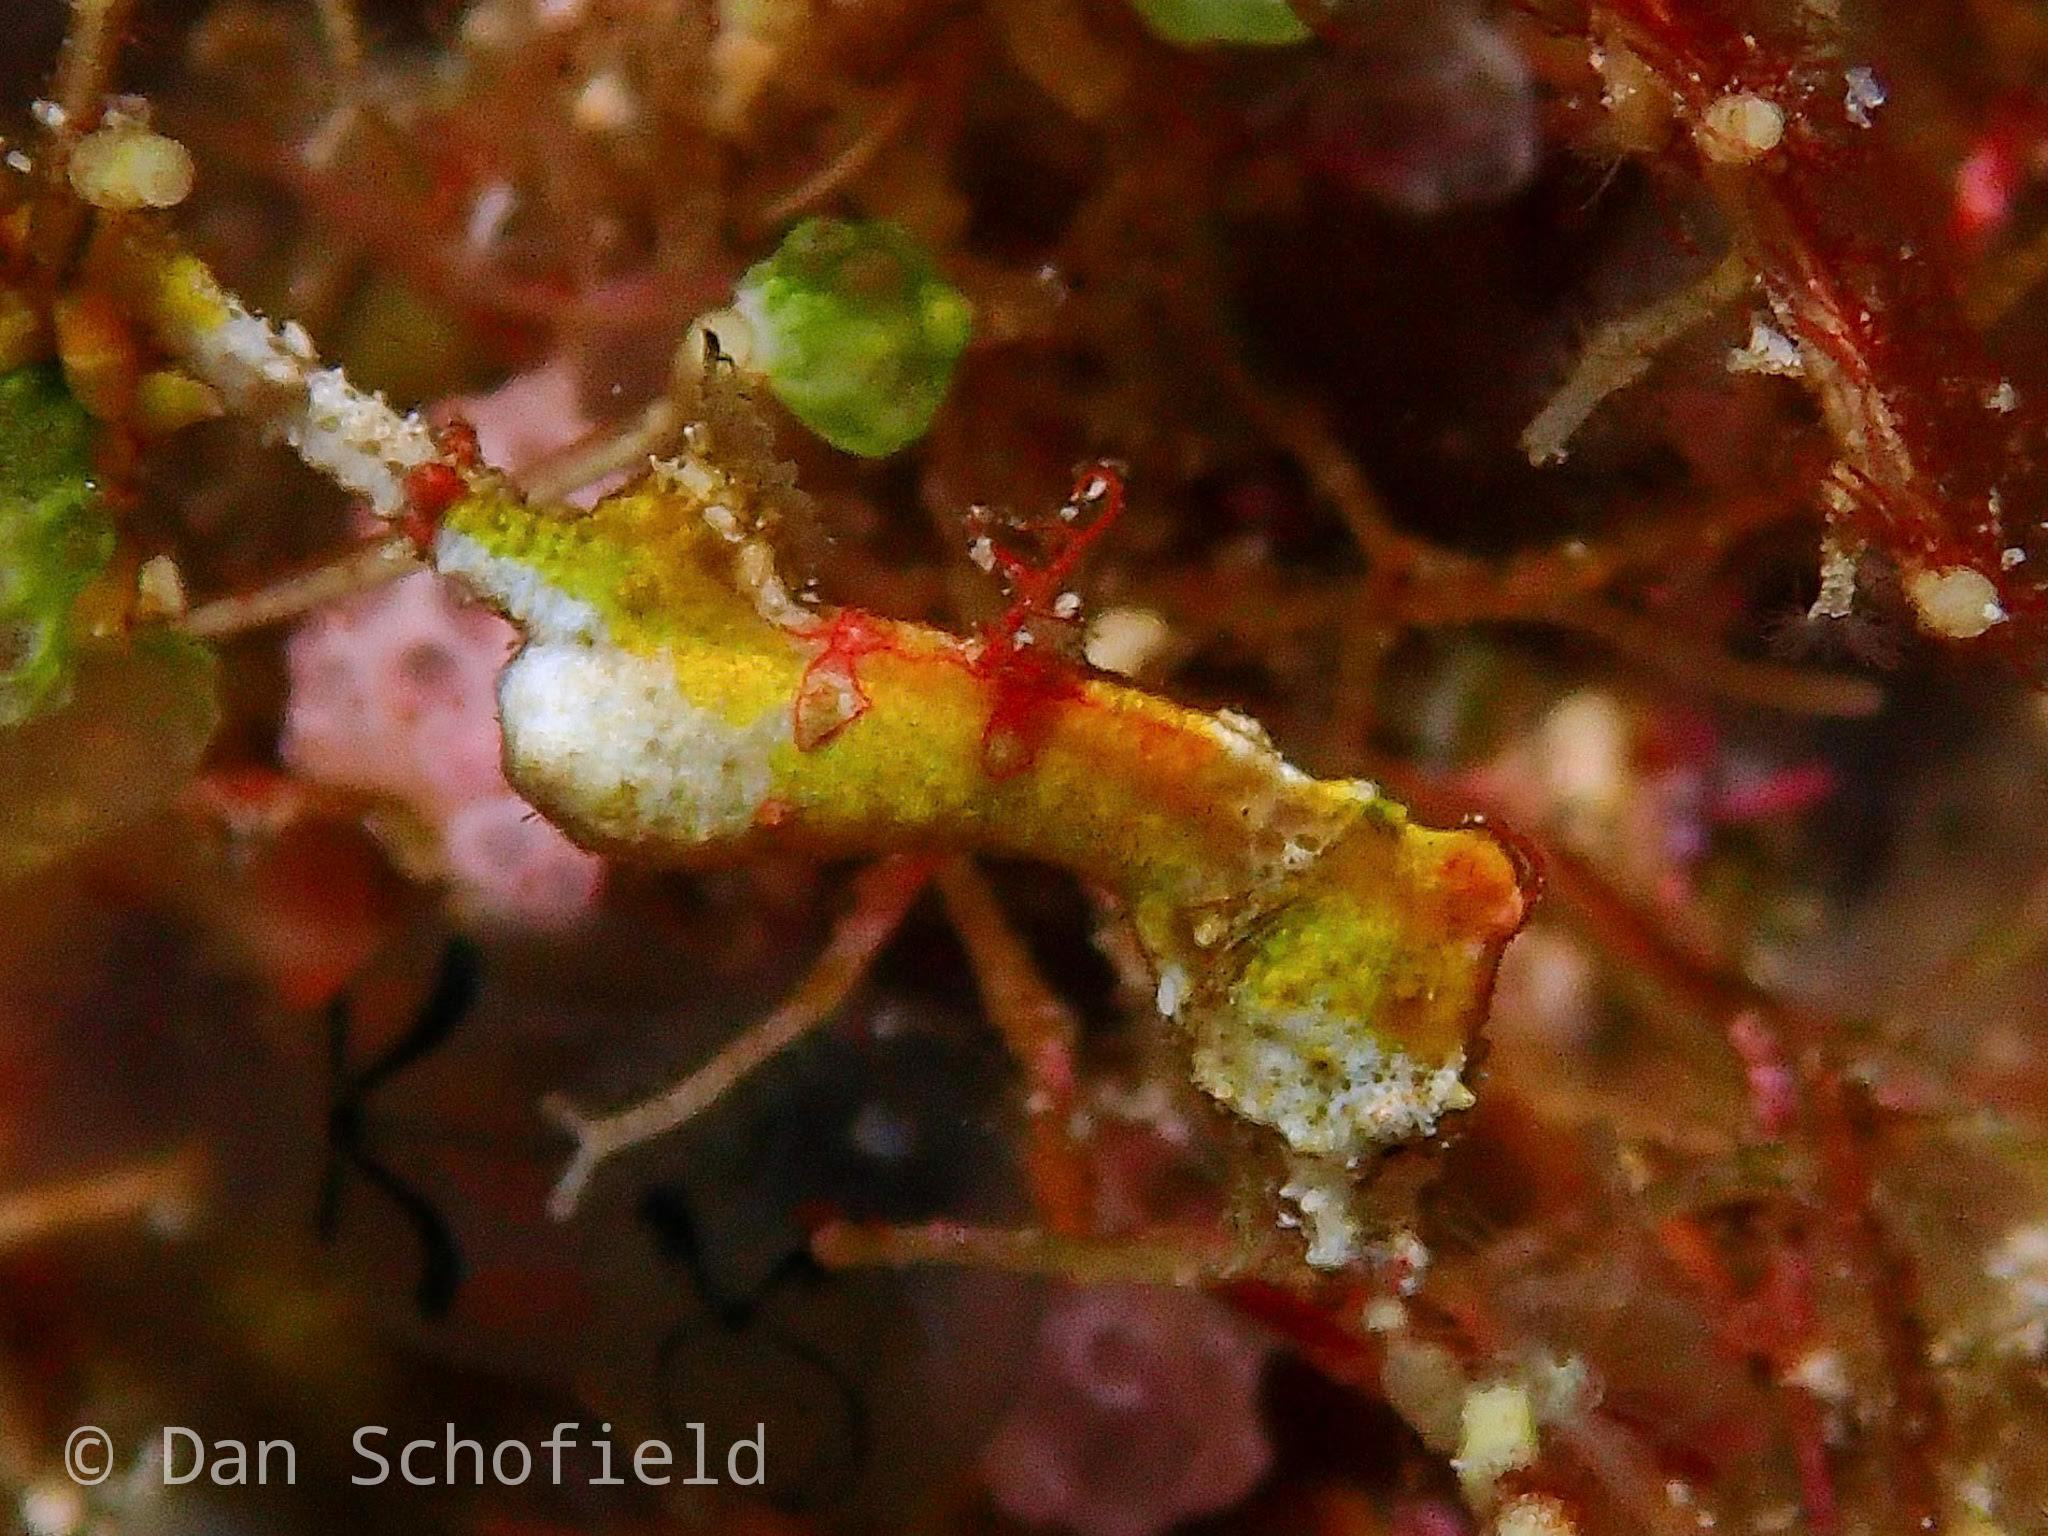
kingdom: Animalia
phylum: Chordata
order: Syngnathiformes
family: Syngnathidae
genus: Hippocampus
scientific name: Hippocampus pontohi
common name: Pontoh`s pygmy seahorse
